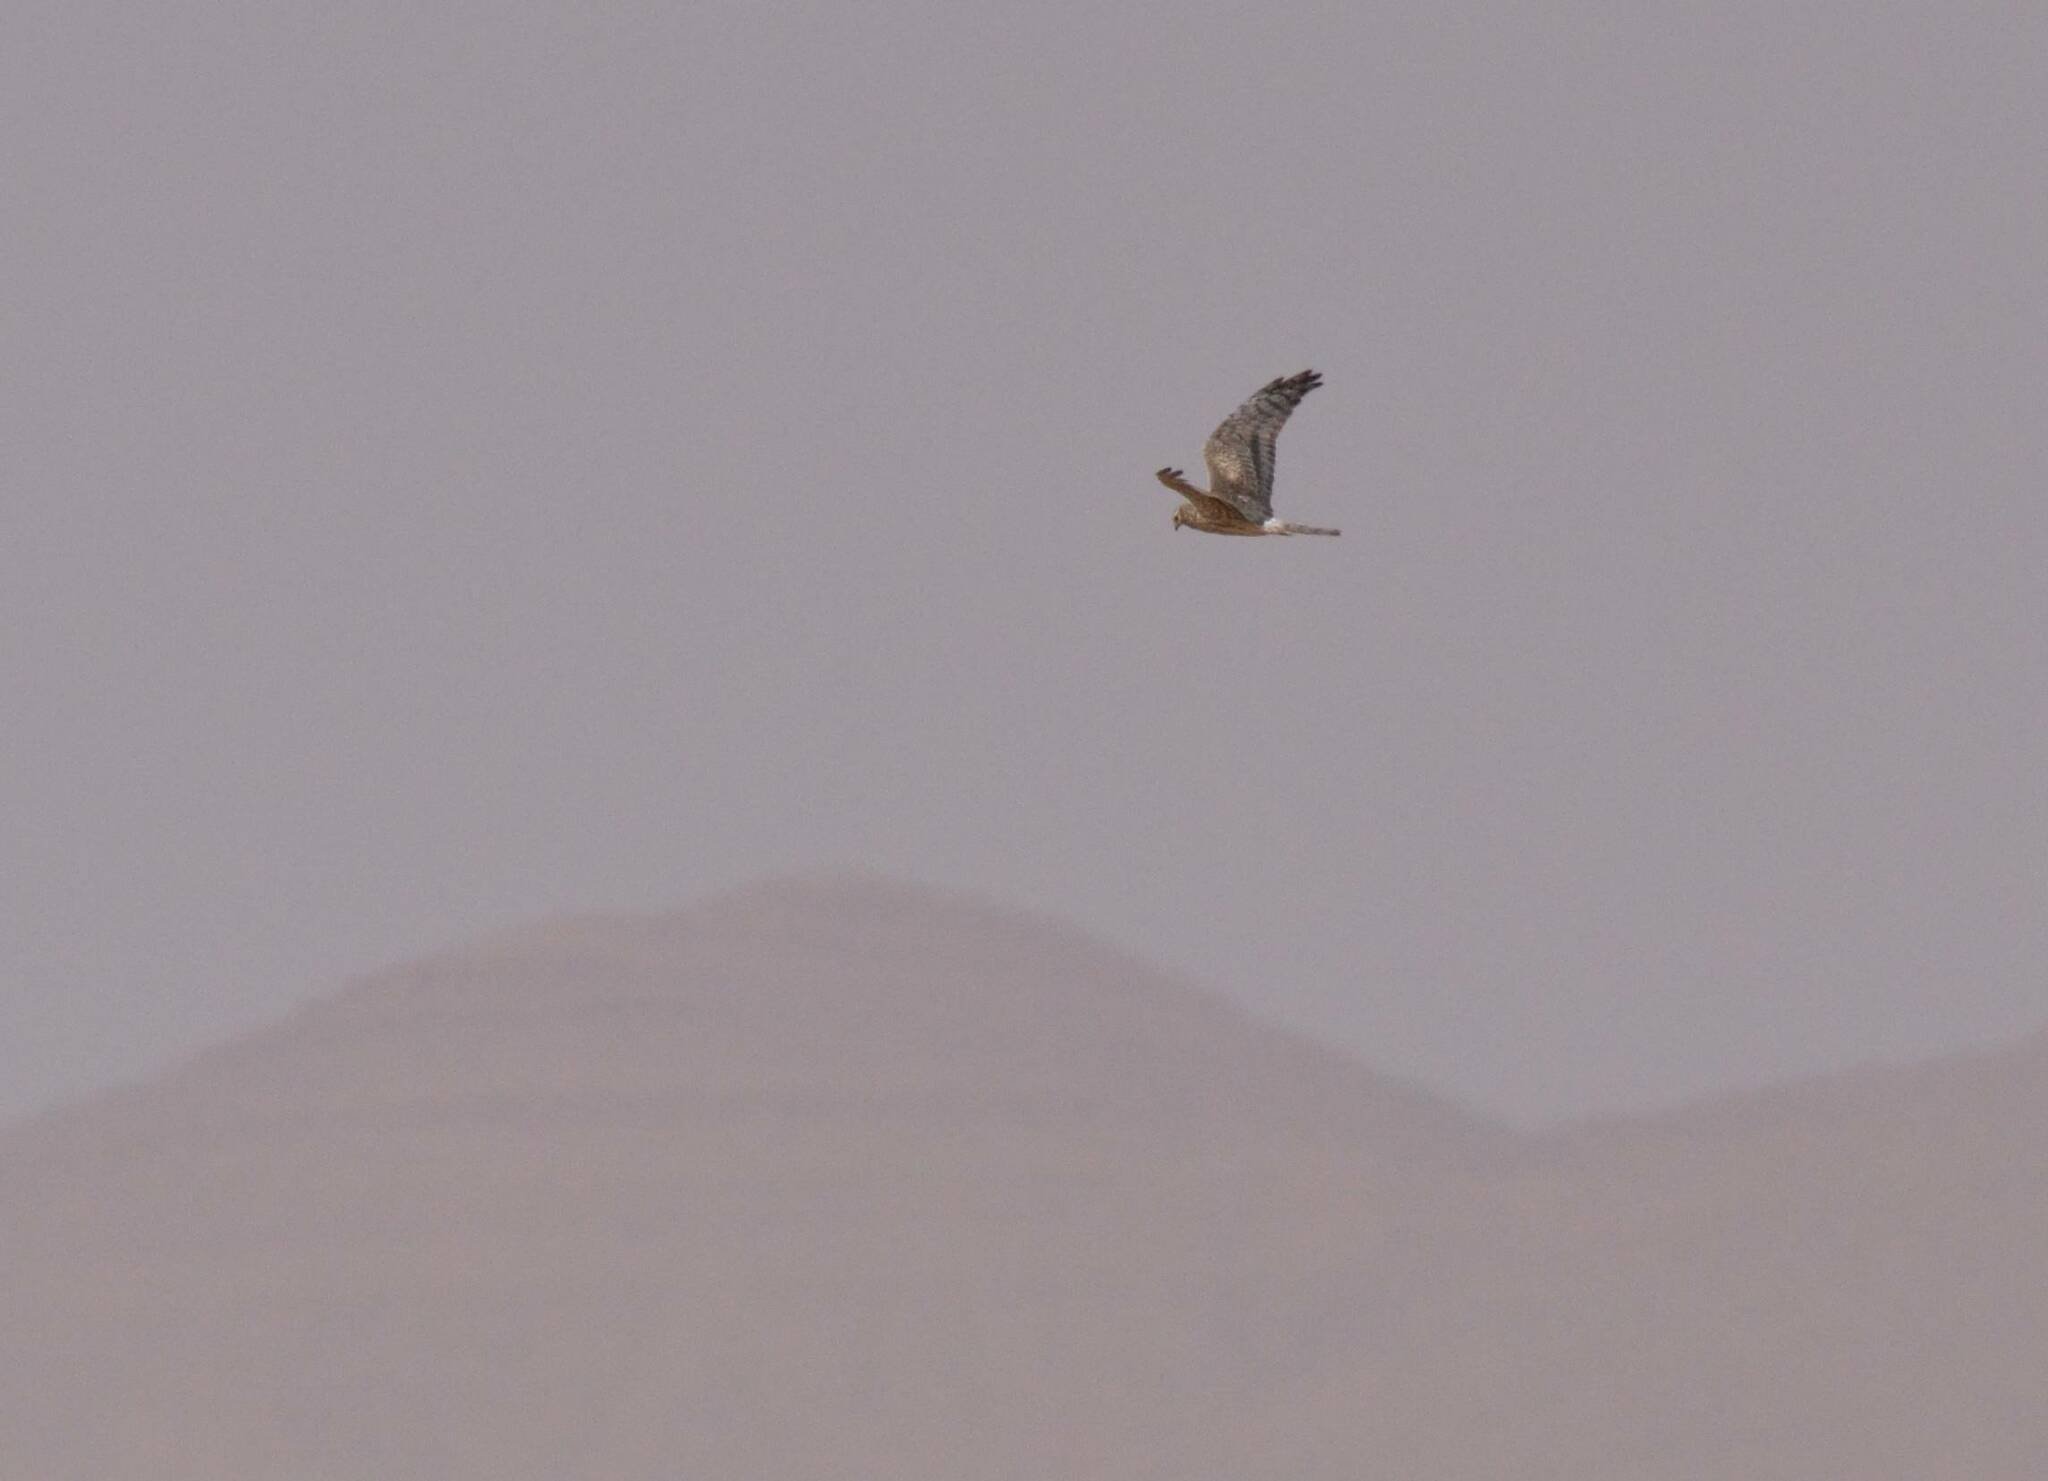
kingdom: Animalia
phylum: Chordata
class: Aves
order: Accipitriformes
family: Accipitridae
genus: Circus
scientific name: Circus pygargus
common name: Montagu's harrier
